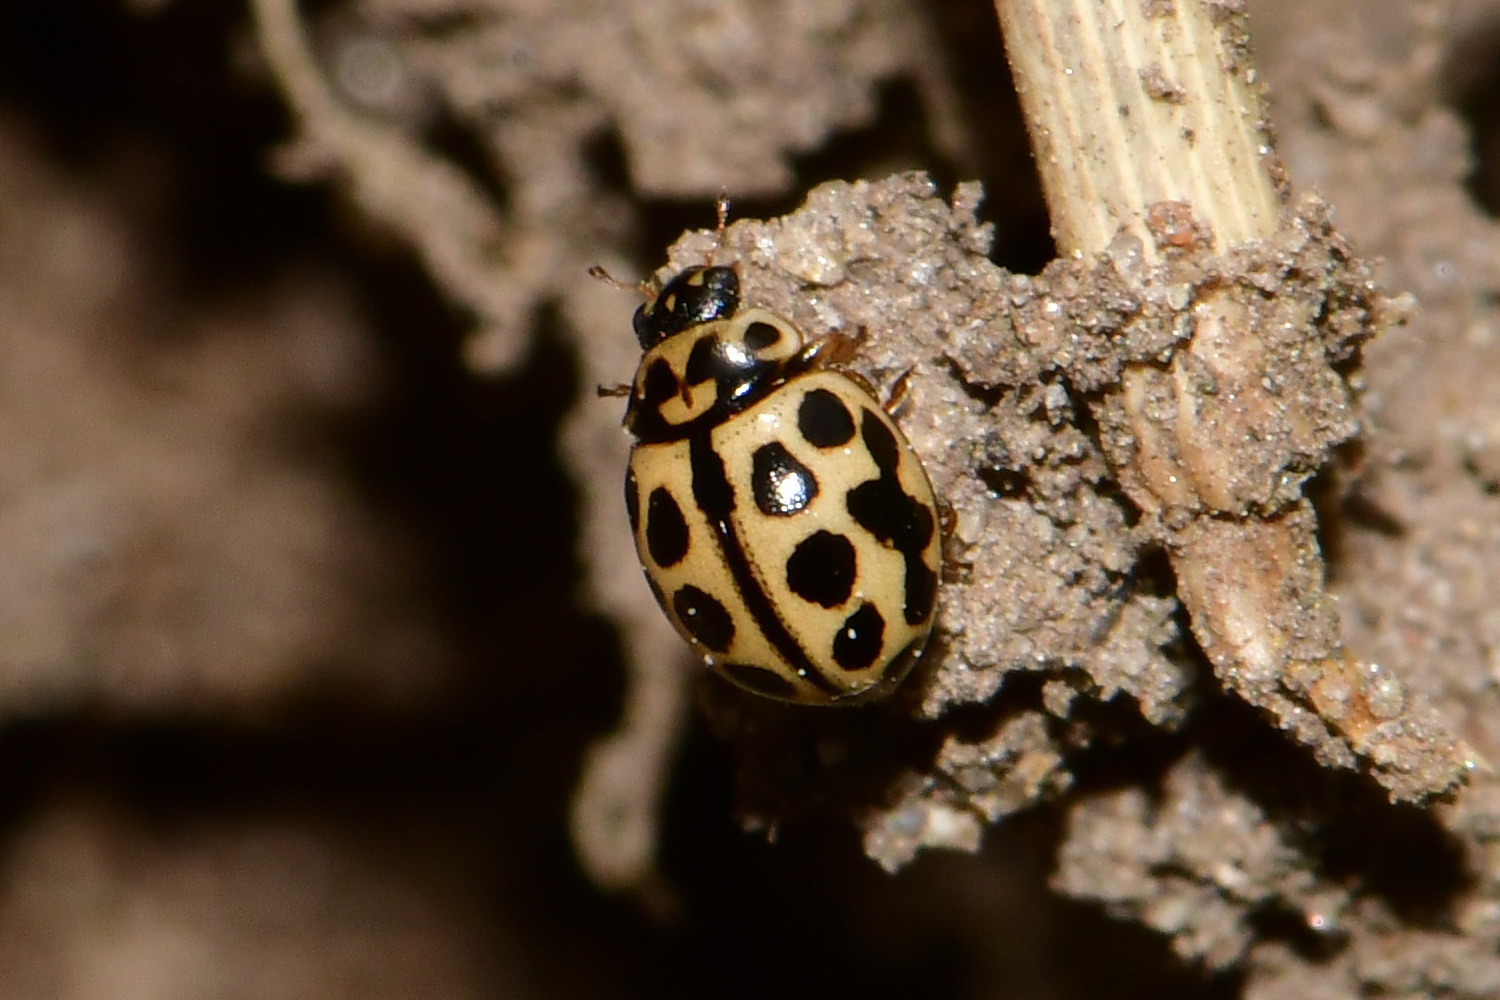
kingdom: Animalia
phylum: Arthropoda
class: Insecta
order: Coleoptera
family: Coccinellidae
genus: Tytthaspis
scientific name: Tytthaspis sedecimpunctata
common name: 16-spot ladybird
